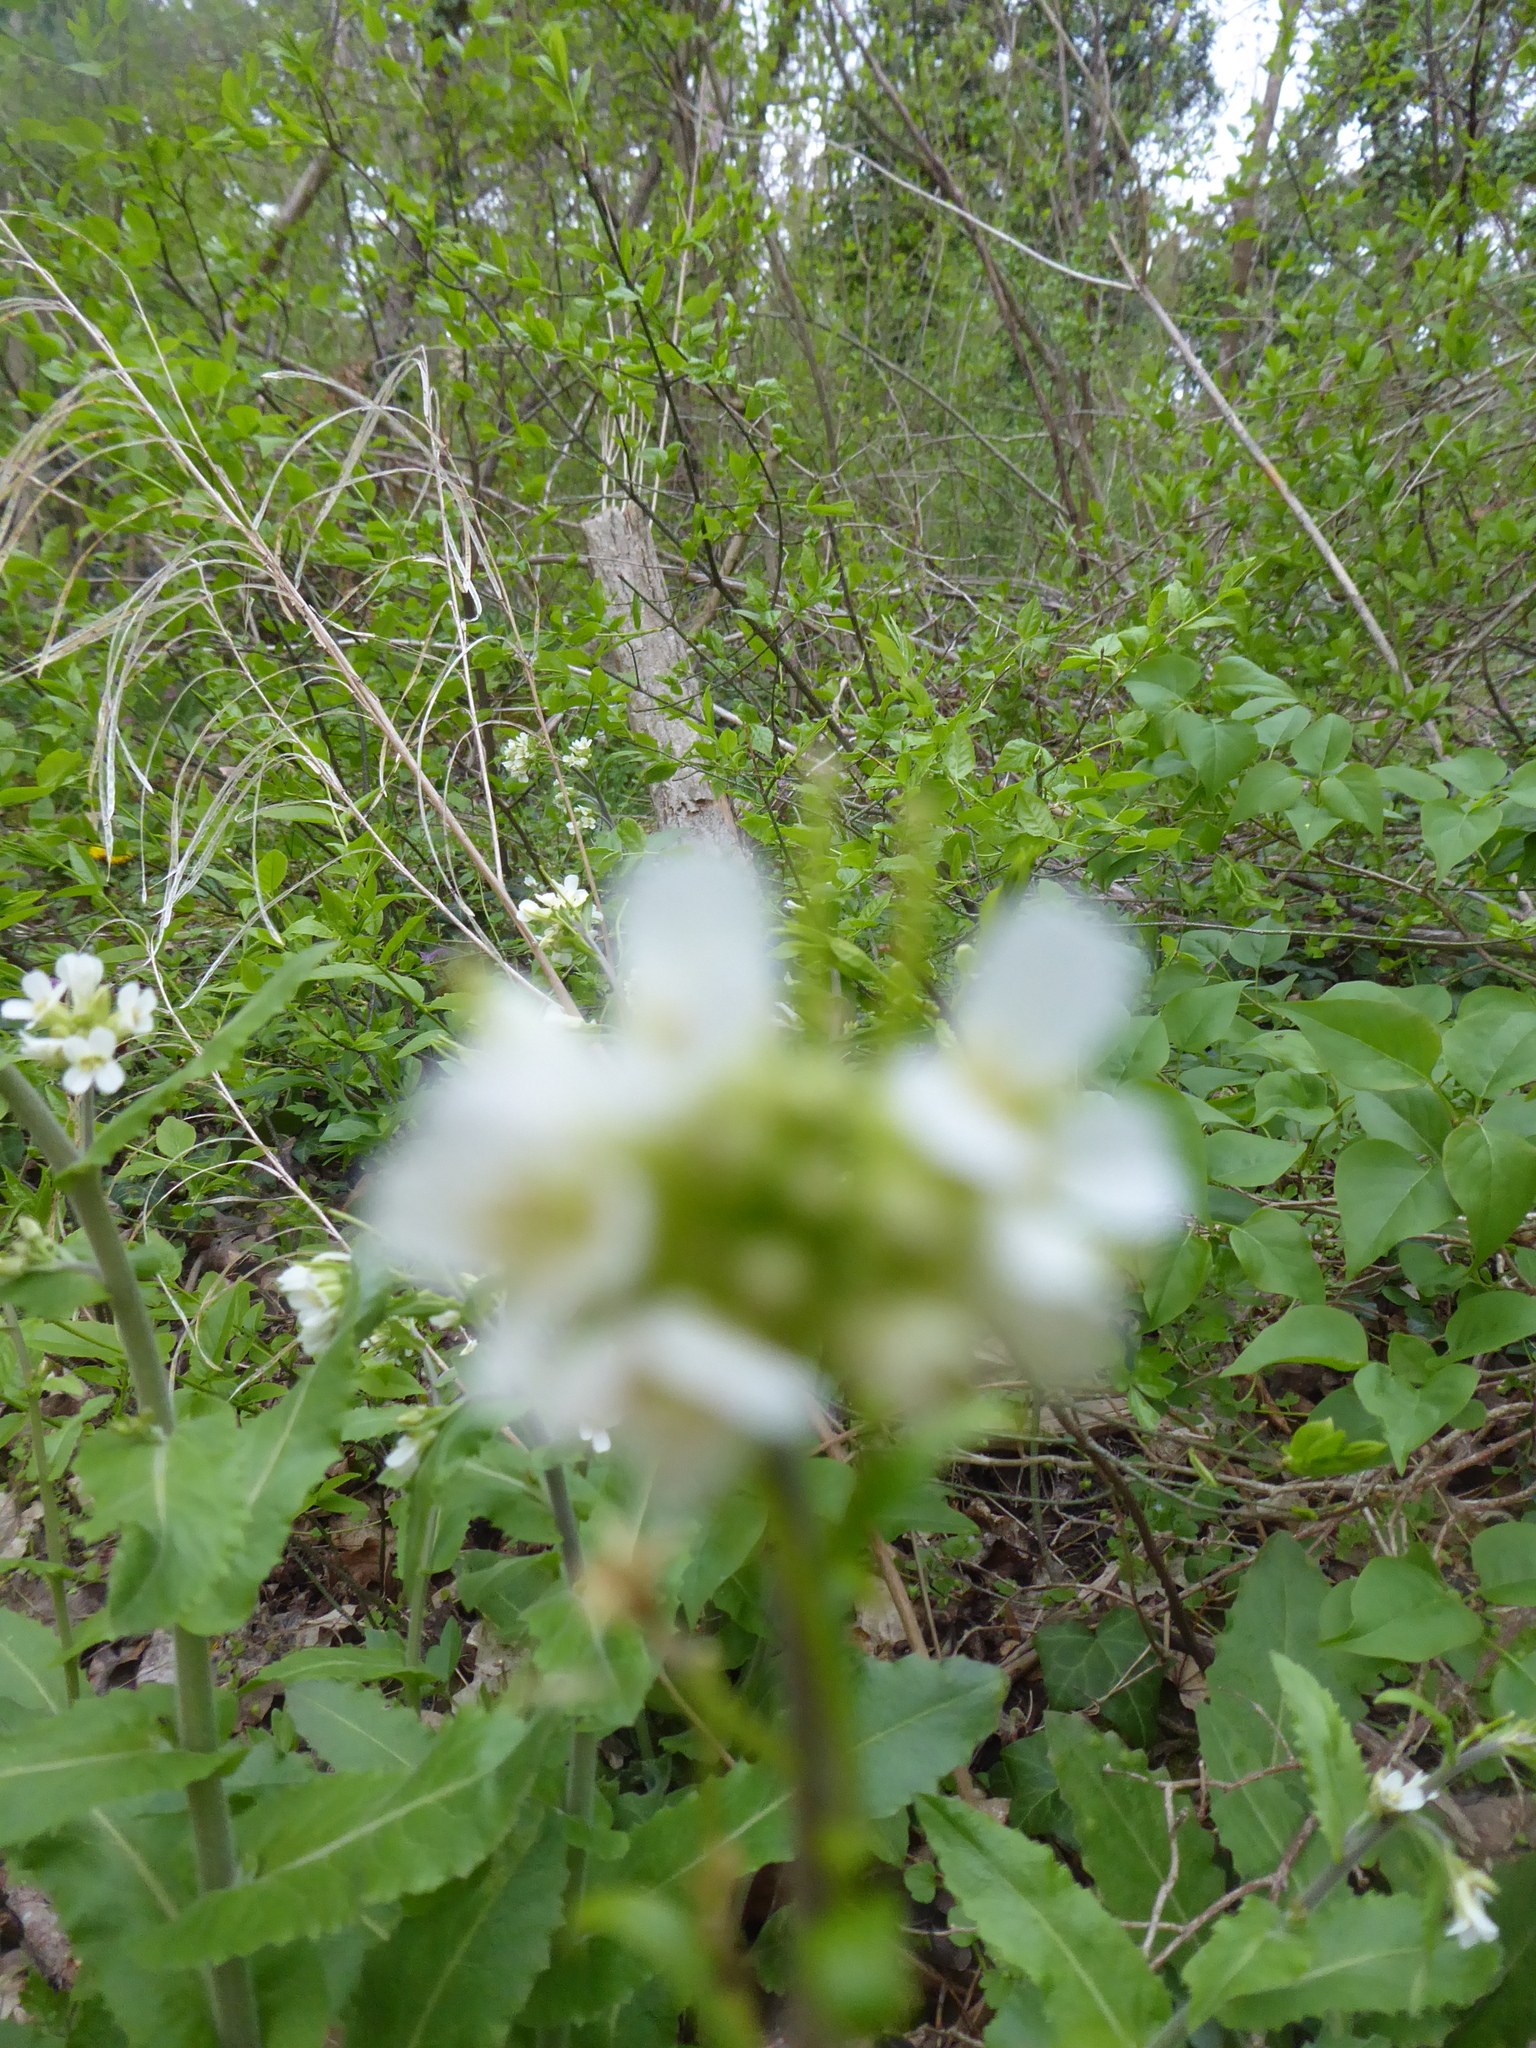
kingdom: Plantae
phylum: Tracheophyta
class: Magnoliopsida
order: Brassicales
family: Brassicaceae
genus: Pseudoturritis
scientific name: Pseudoturritis turrita
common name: Tower cress
